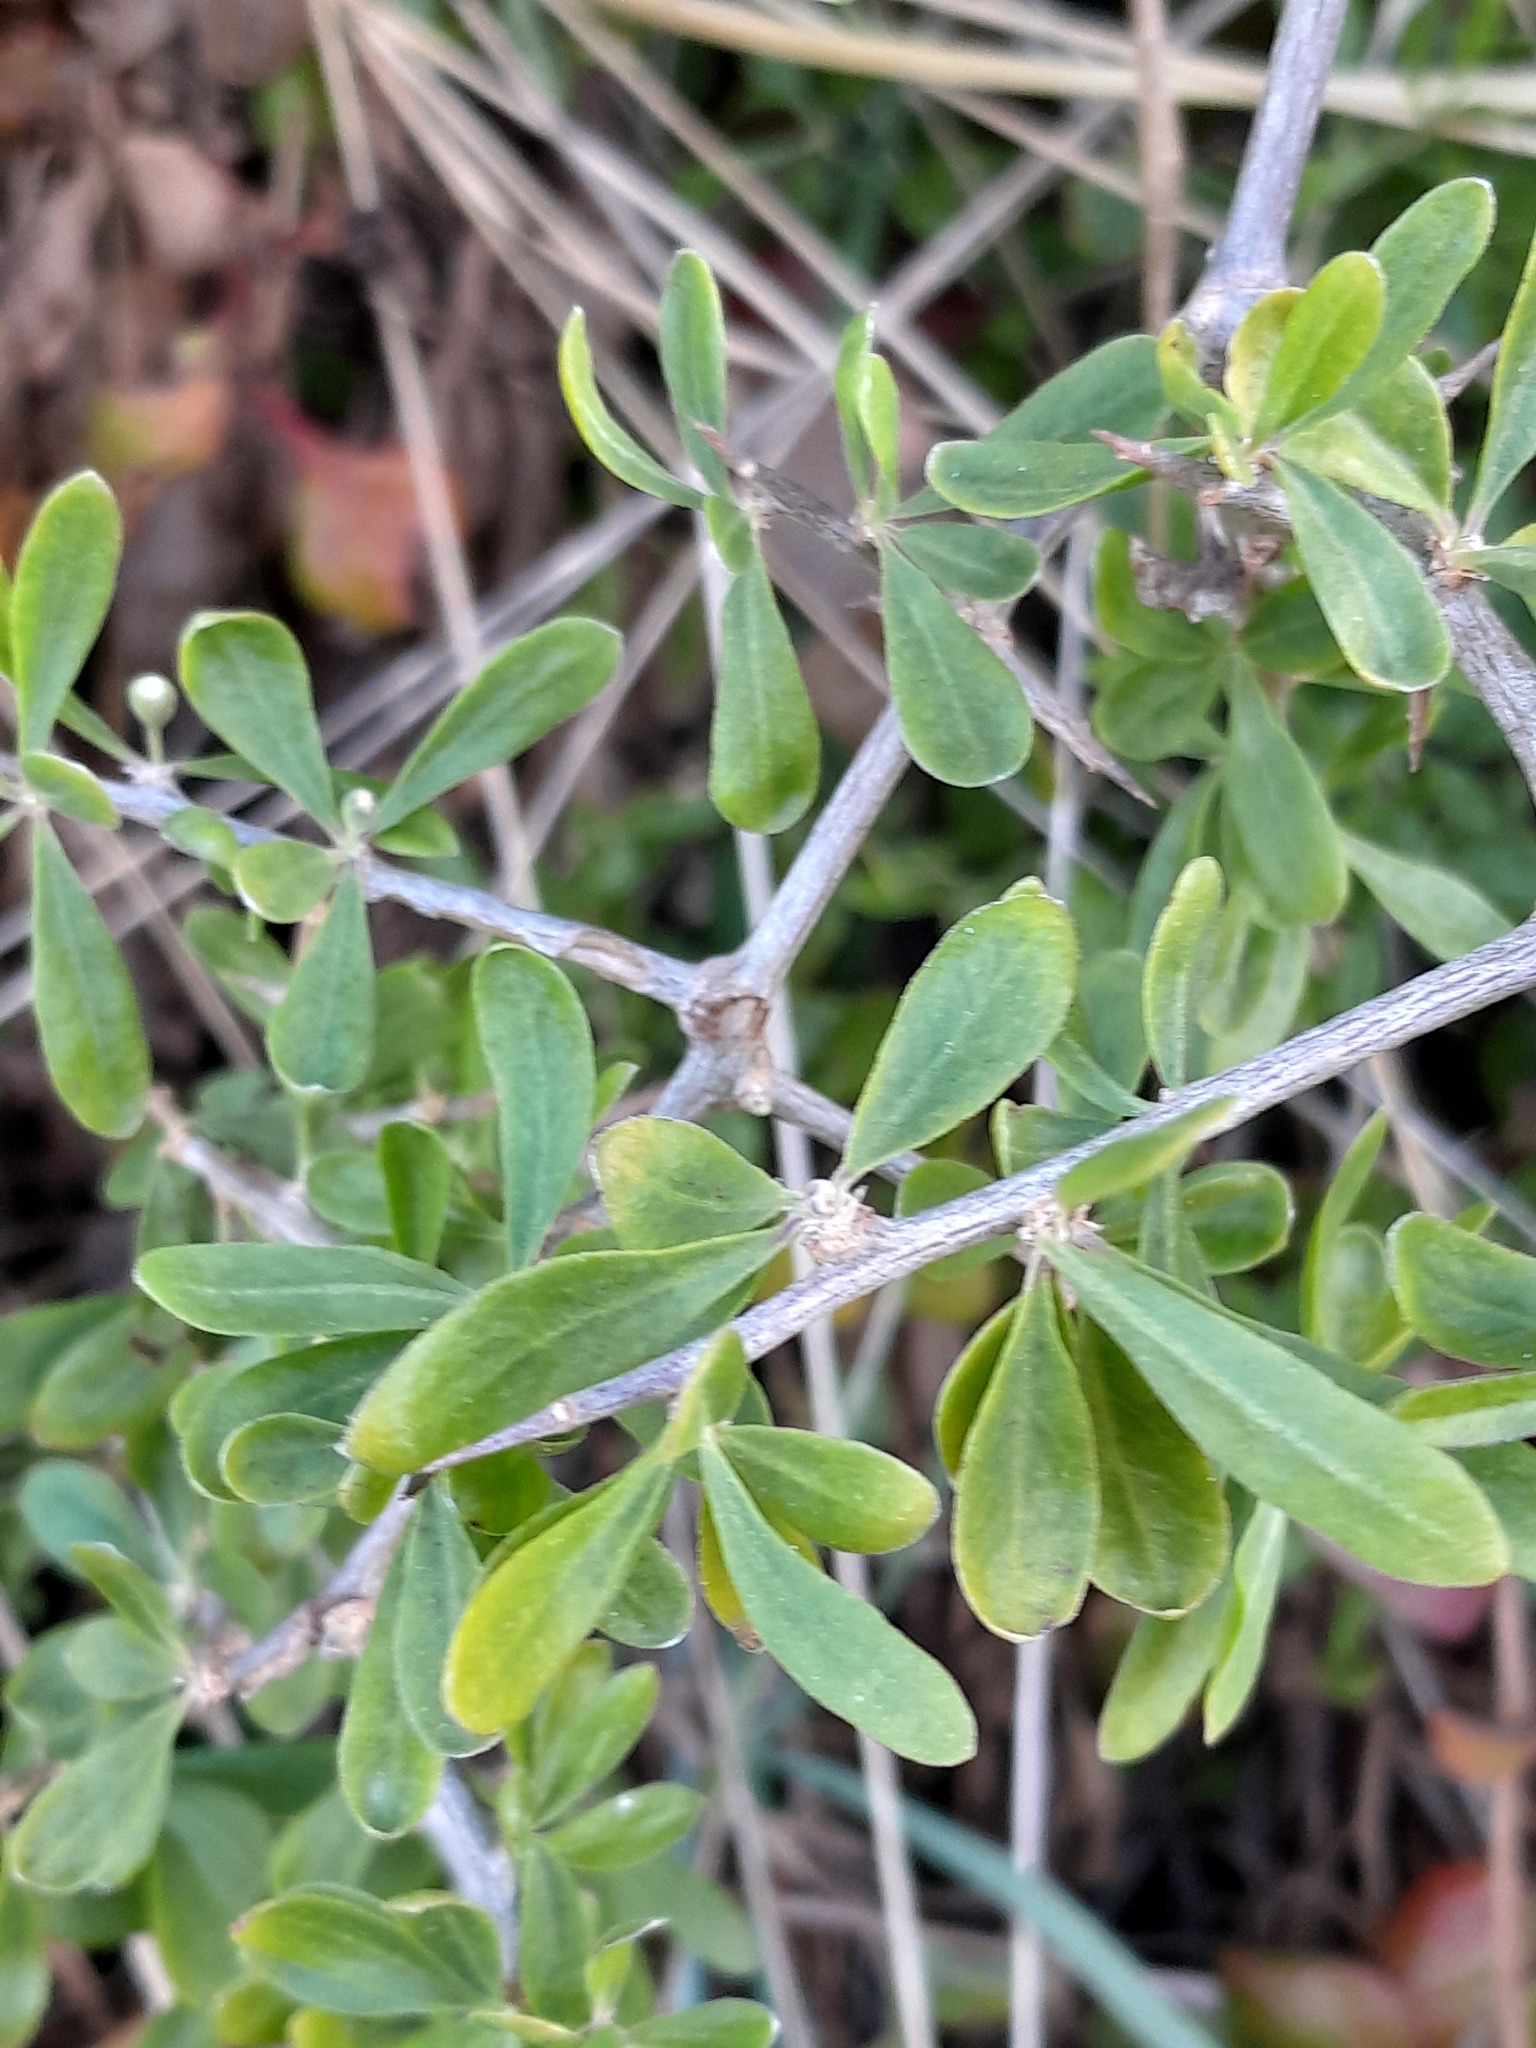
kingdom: Plantae
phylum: Tracheophyta
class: Magnoliopsida
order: Solanales
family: Solanaceae
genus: Lycium
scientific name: Lycium ferocissimum
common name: African boxthorn
